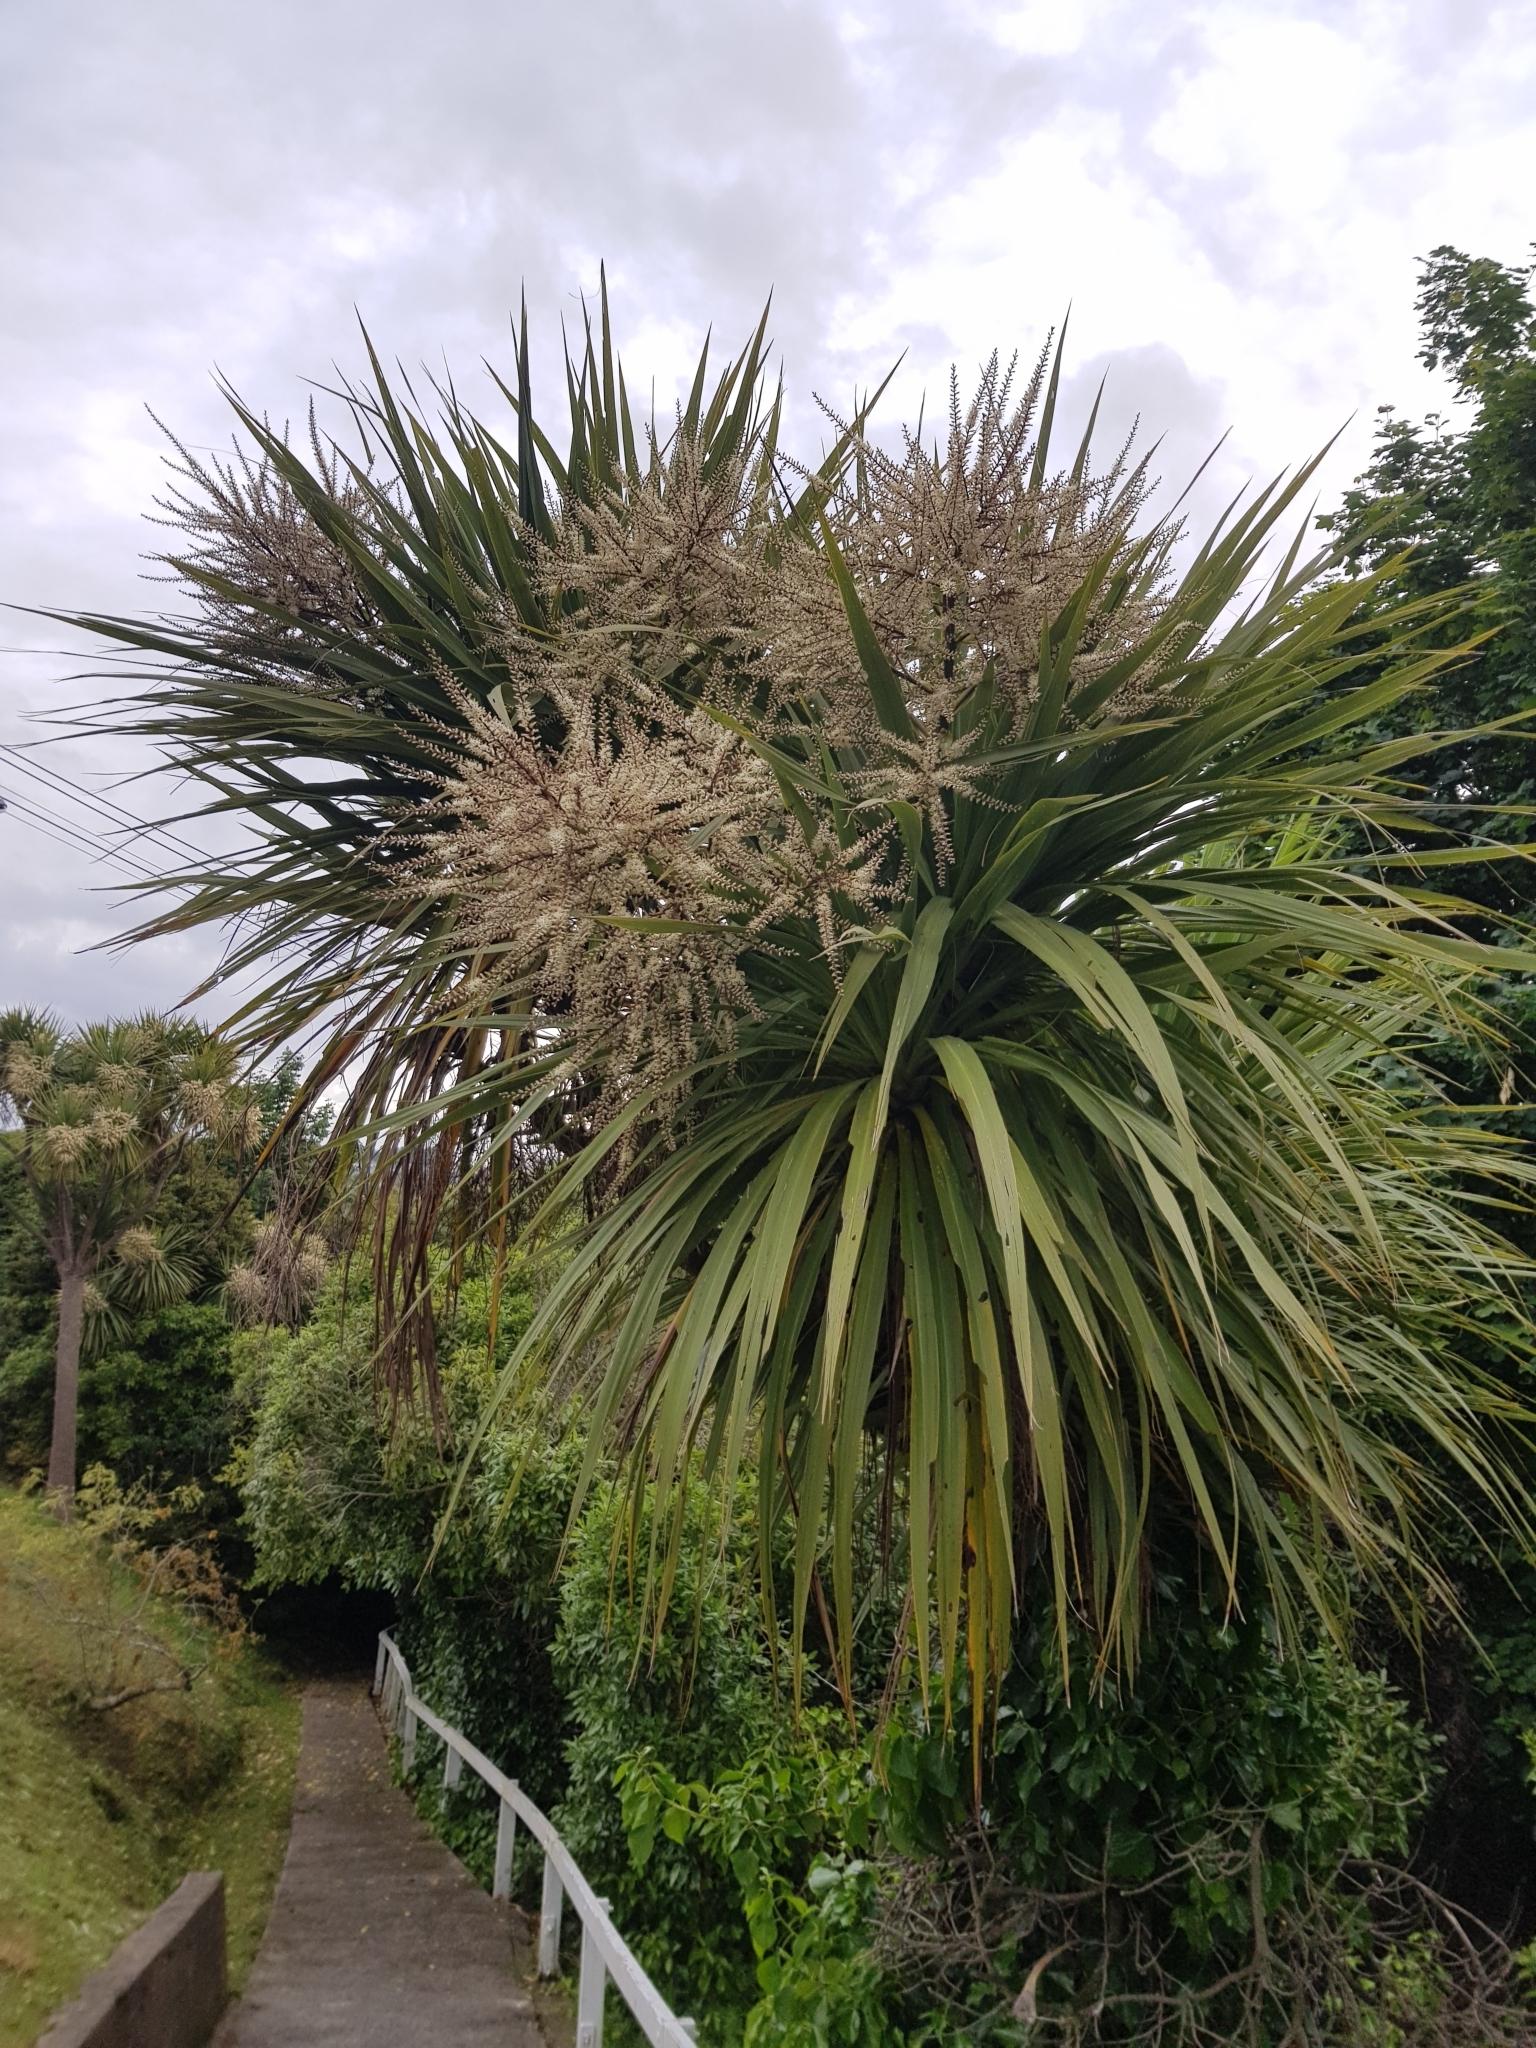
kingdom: Plantae
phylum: Tracheophyta
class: Liliopsida
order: Asparagales
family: Asparagaceae
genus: Cordyline
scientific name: Cordyline australis
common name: Cabbage-palm
